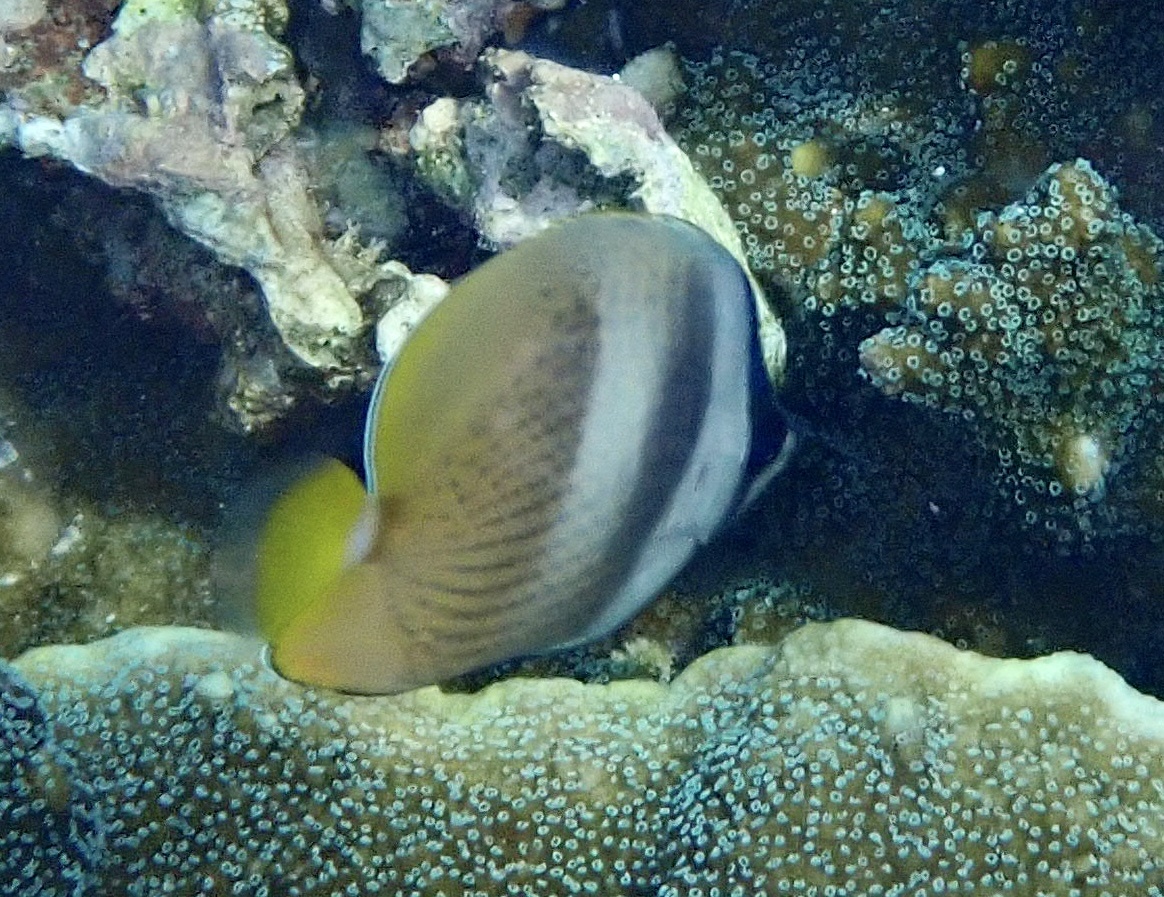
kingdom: Animalia
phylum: Chordata
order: Perciformes
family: Chaetodontidae
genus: Chaetodon
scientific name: Chaetodon kleinii
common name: Klein's butterflyfish
